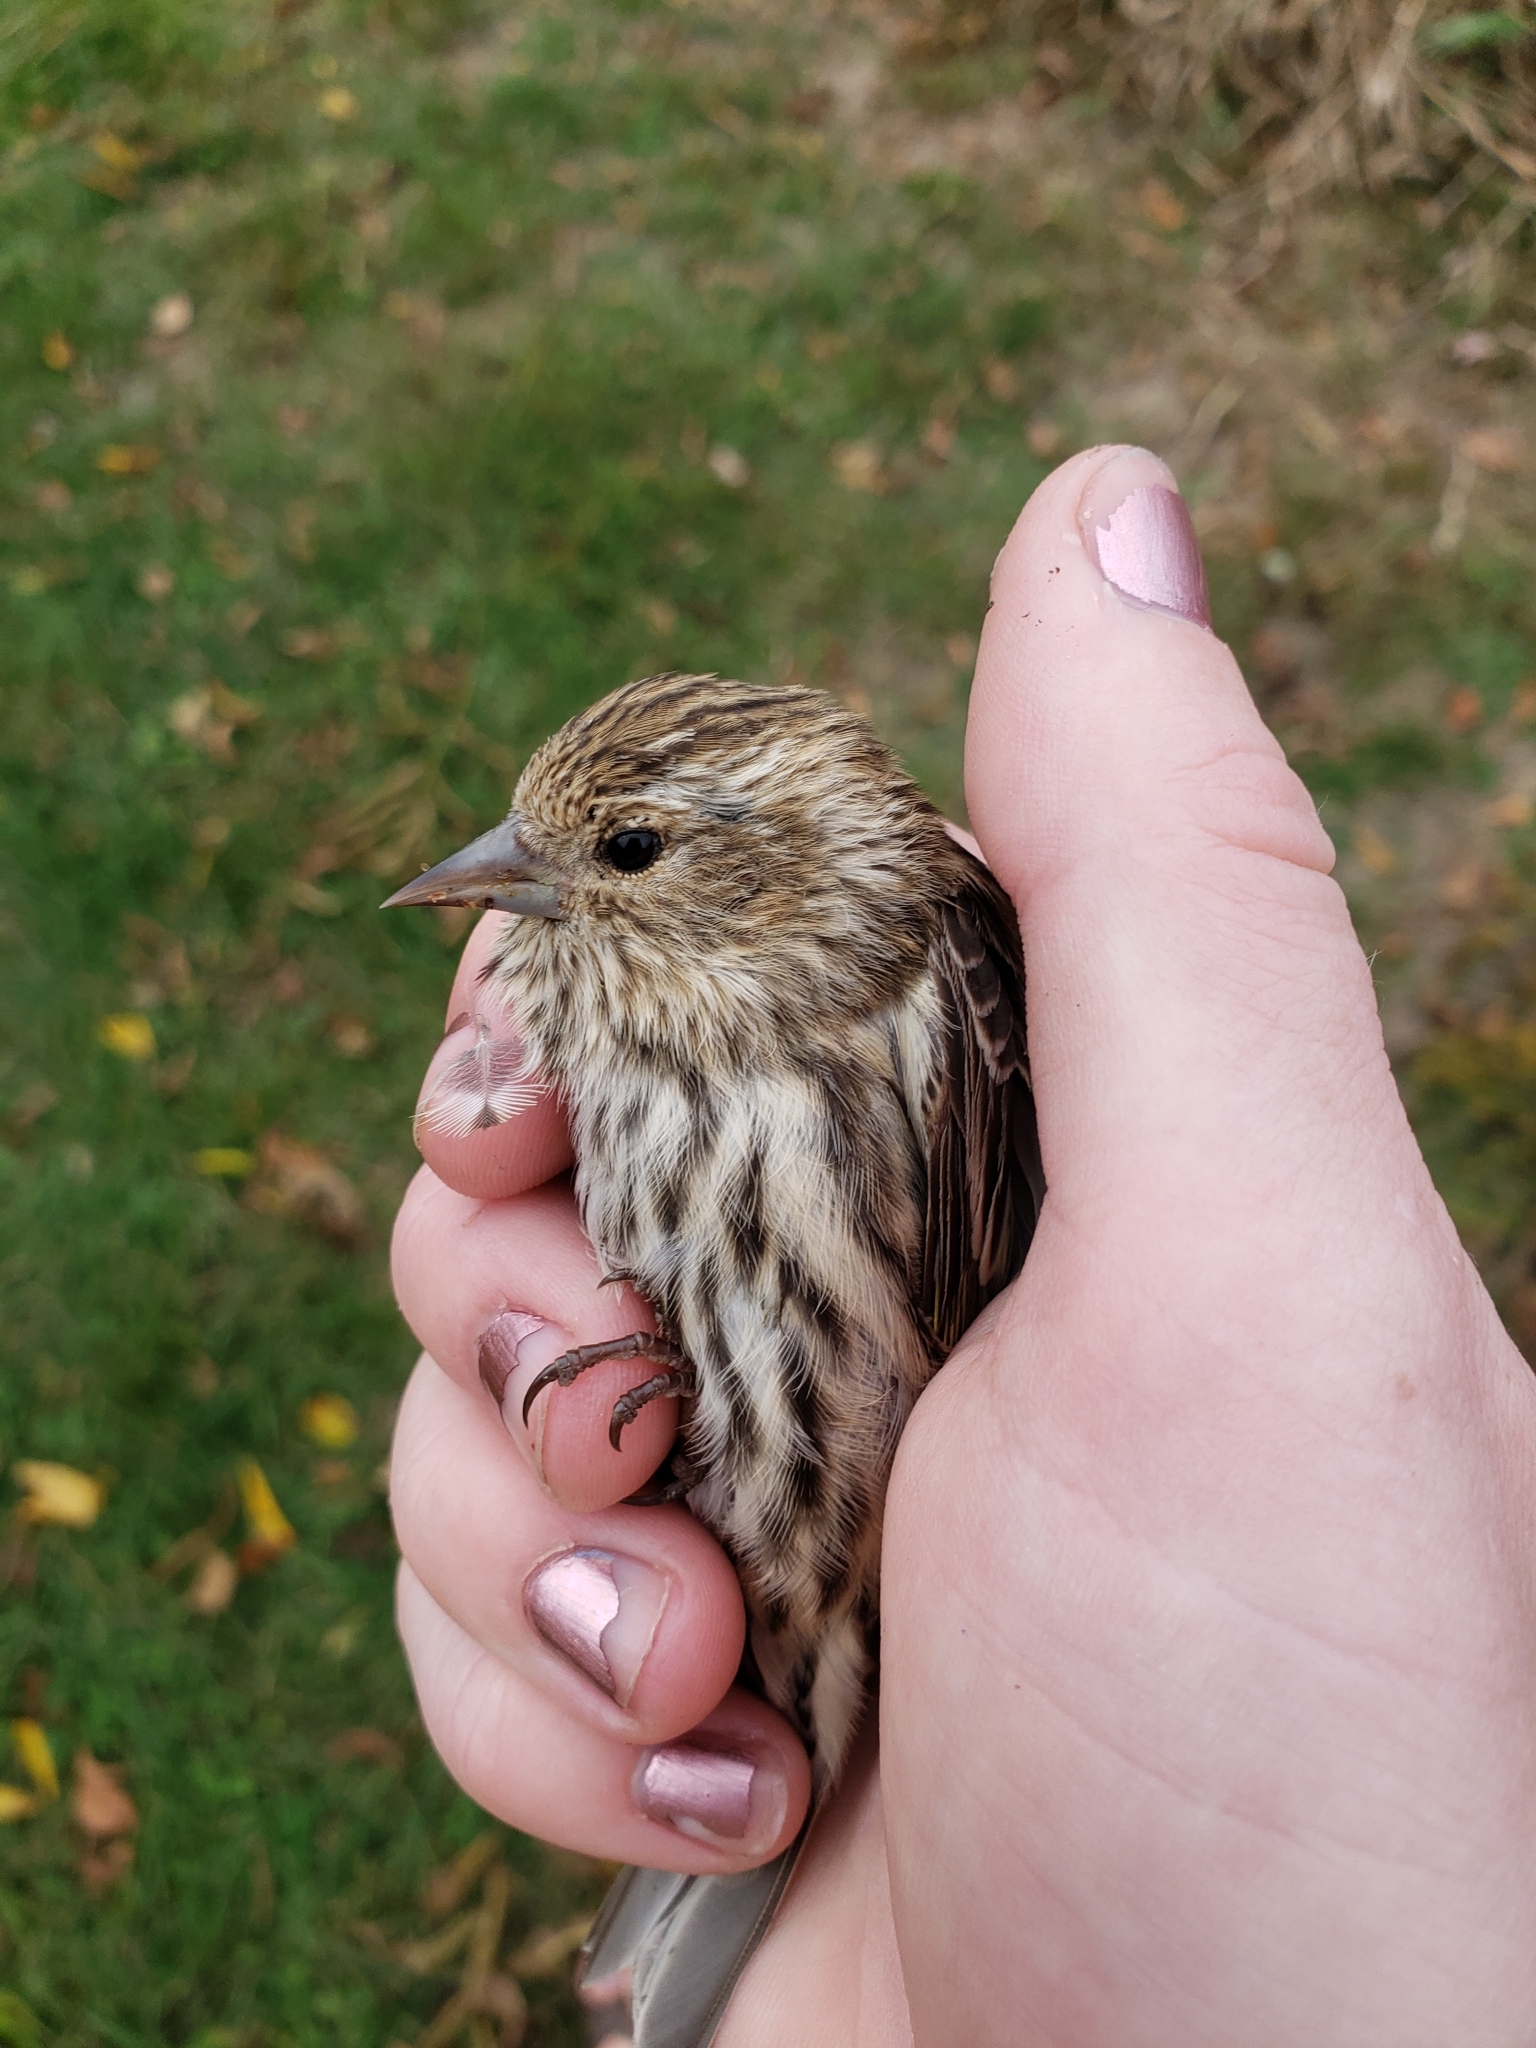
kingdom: Animalia
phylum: Chordata
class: Aves
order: Passeriformes
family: Fringillidae
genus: Spinus
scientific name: Spinus pinus
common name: Pine siskin
